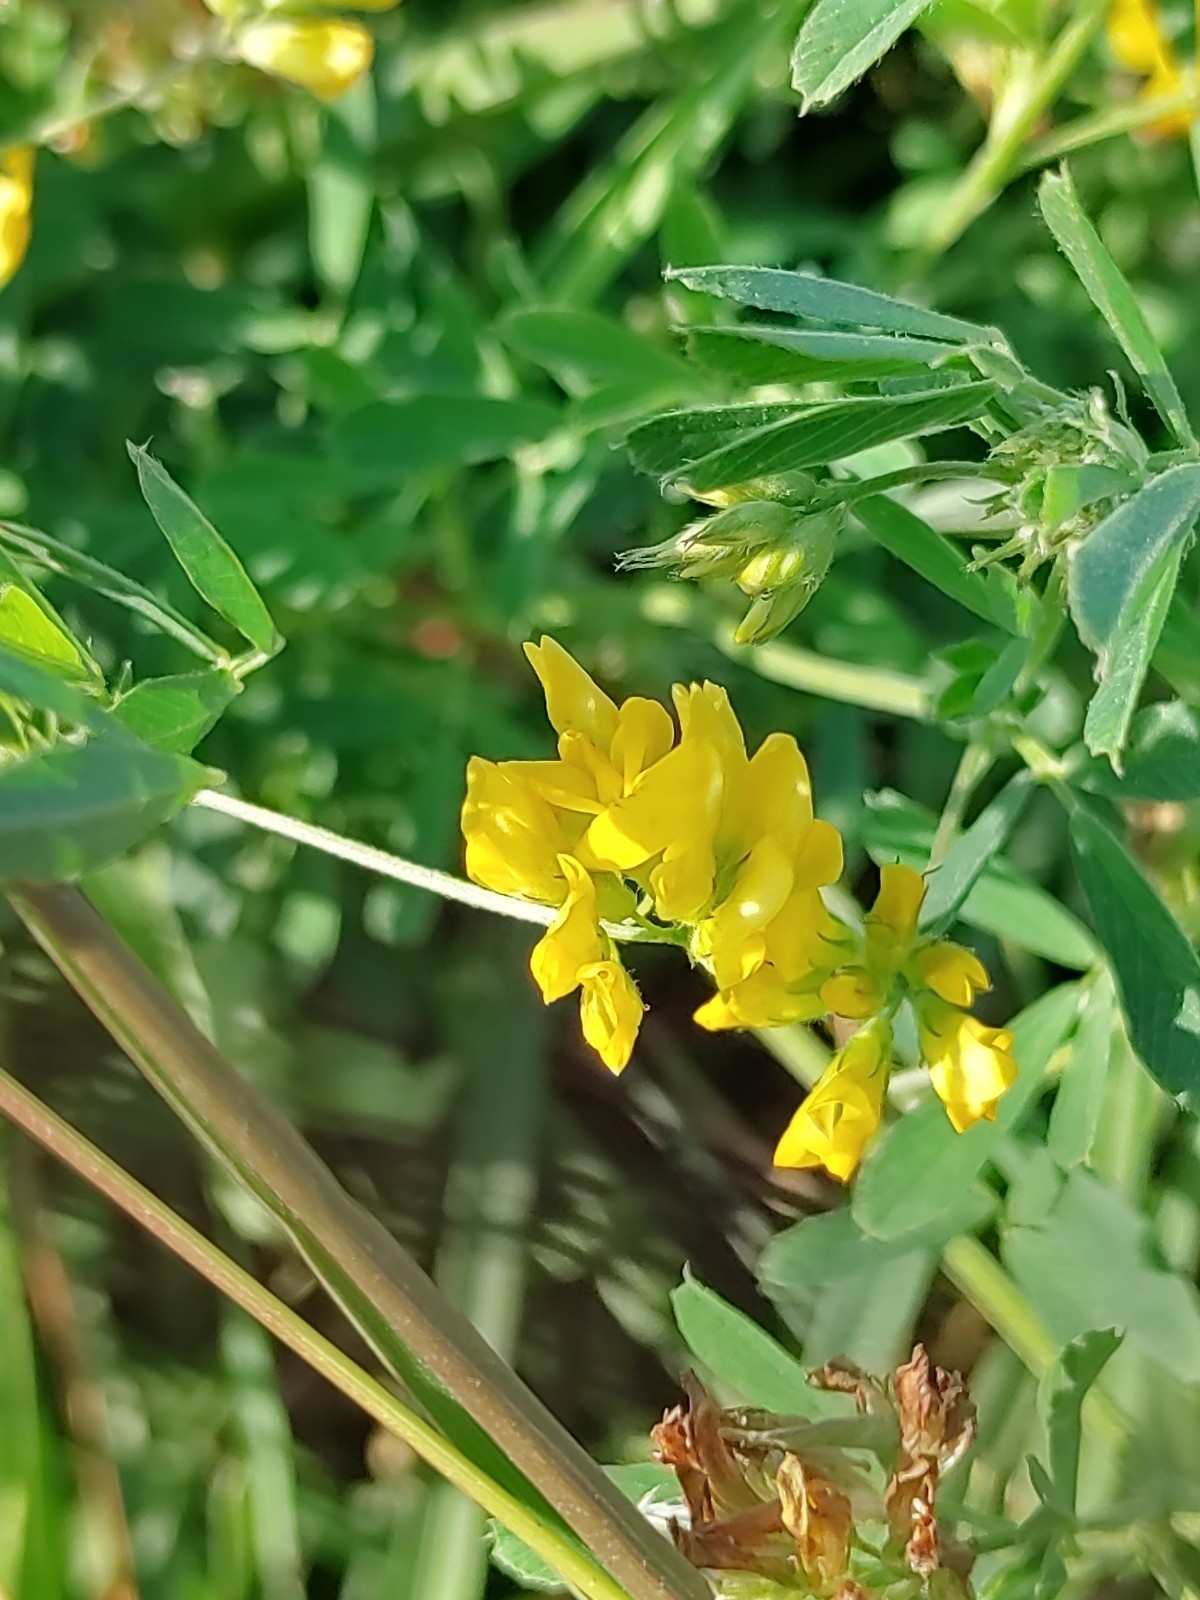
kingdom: Plantae
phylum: Tracheophyta
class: Magnoliopsida
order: Fabales
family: Fabaceae
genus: Medicago
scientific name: Medicago falcata
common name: Sickle medick
